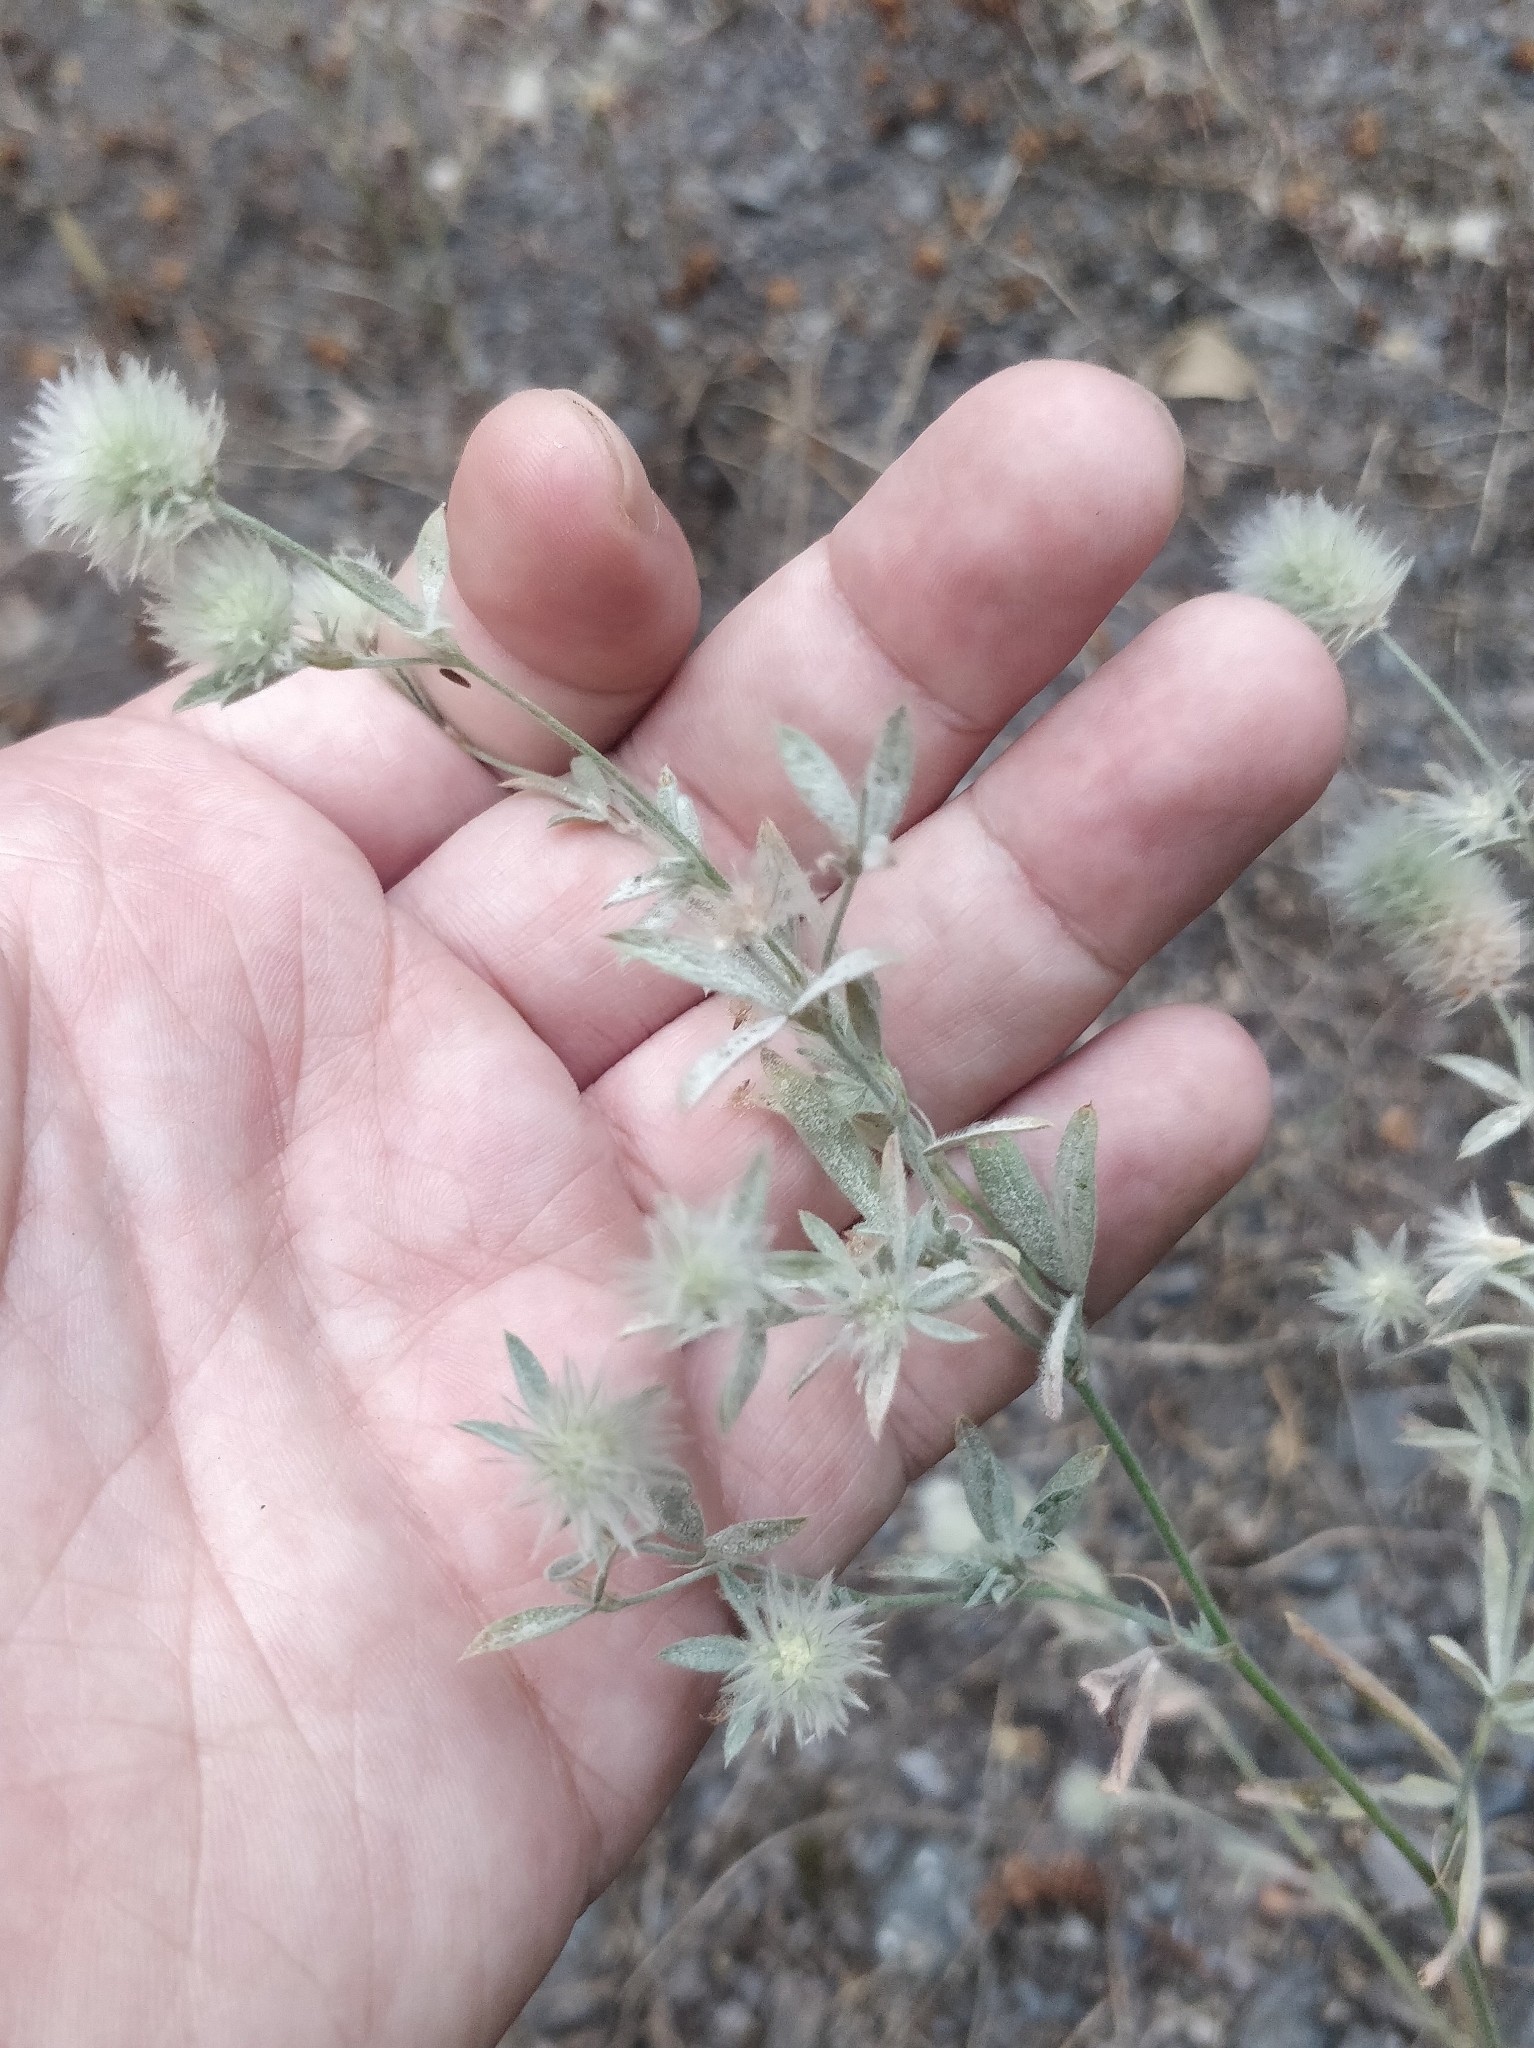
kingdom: Plantae
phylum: Tracheophyta
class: Magnoliopsida
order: Fabales
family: Fabaceae
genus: Trifolium
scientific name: Trifolium arvense
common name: Hare's-foot clover
